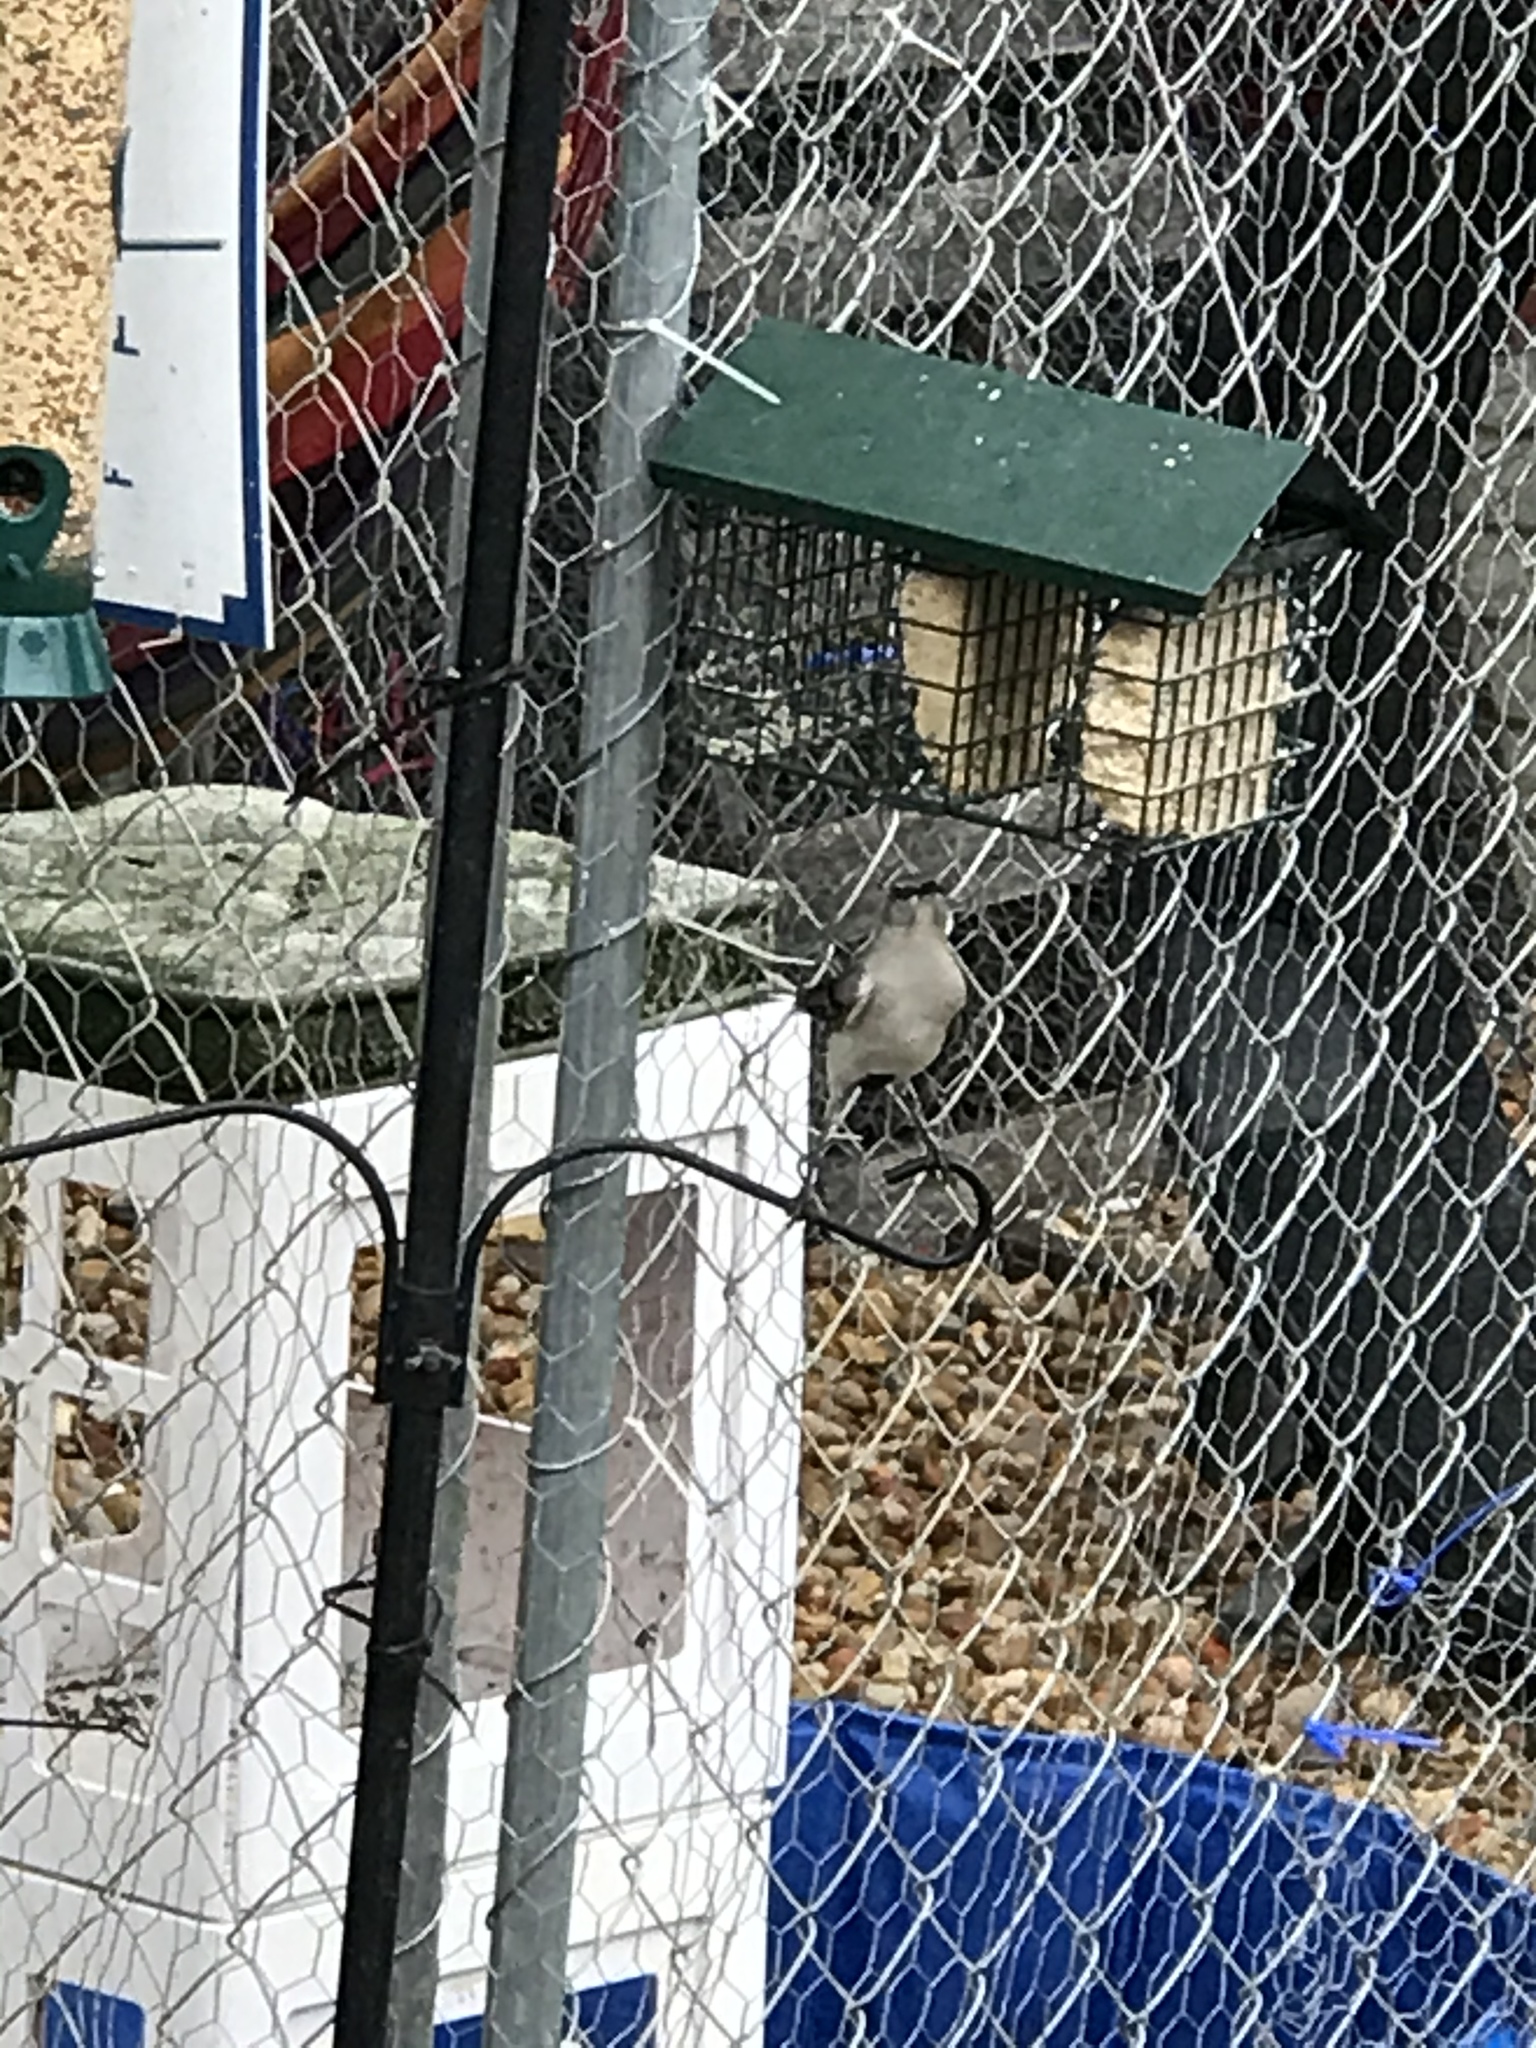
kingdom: Animalia
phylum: Chordata
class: Aves
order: Passeriformes
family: Mimidae
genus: Mimus
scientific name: Mimus polyglottos
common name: Northern mockingbird
